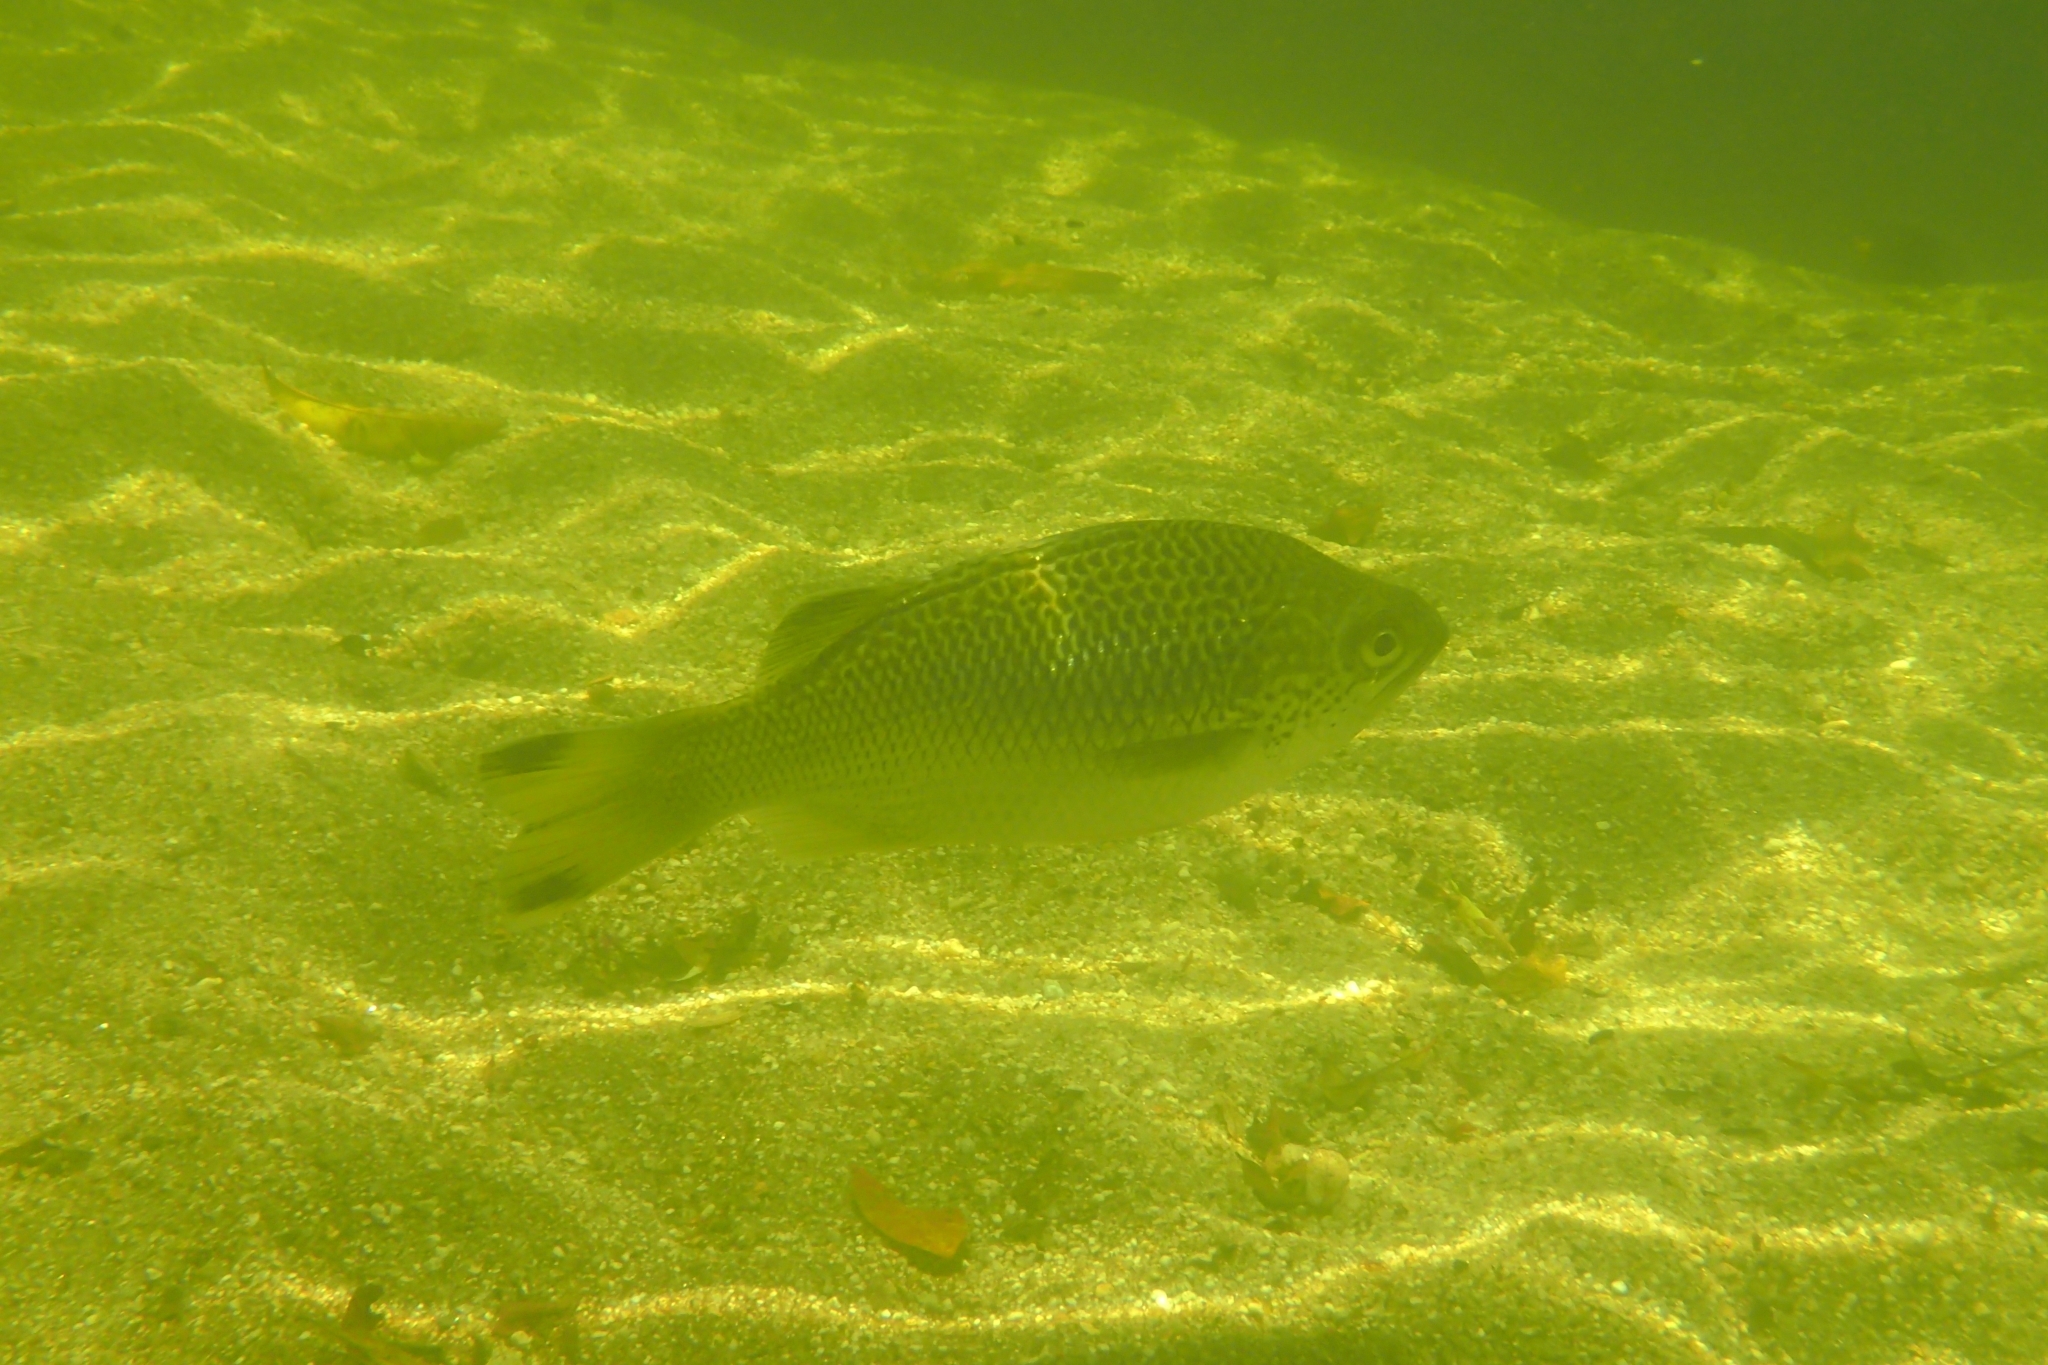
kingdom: Animalia
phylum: Chordata
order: Perciformes
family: Kuhliidae
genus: Kuhlia
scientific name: Kuhlia rupestris
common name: Rock flagtail
